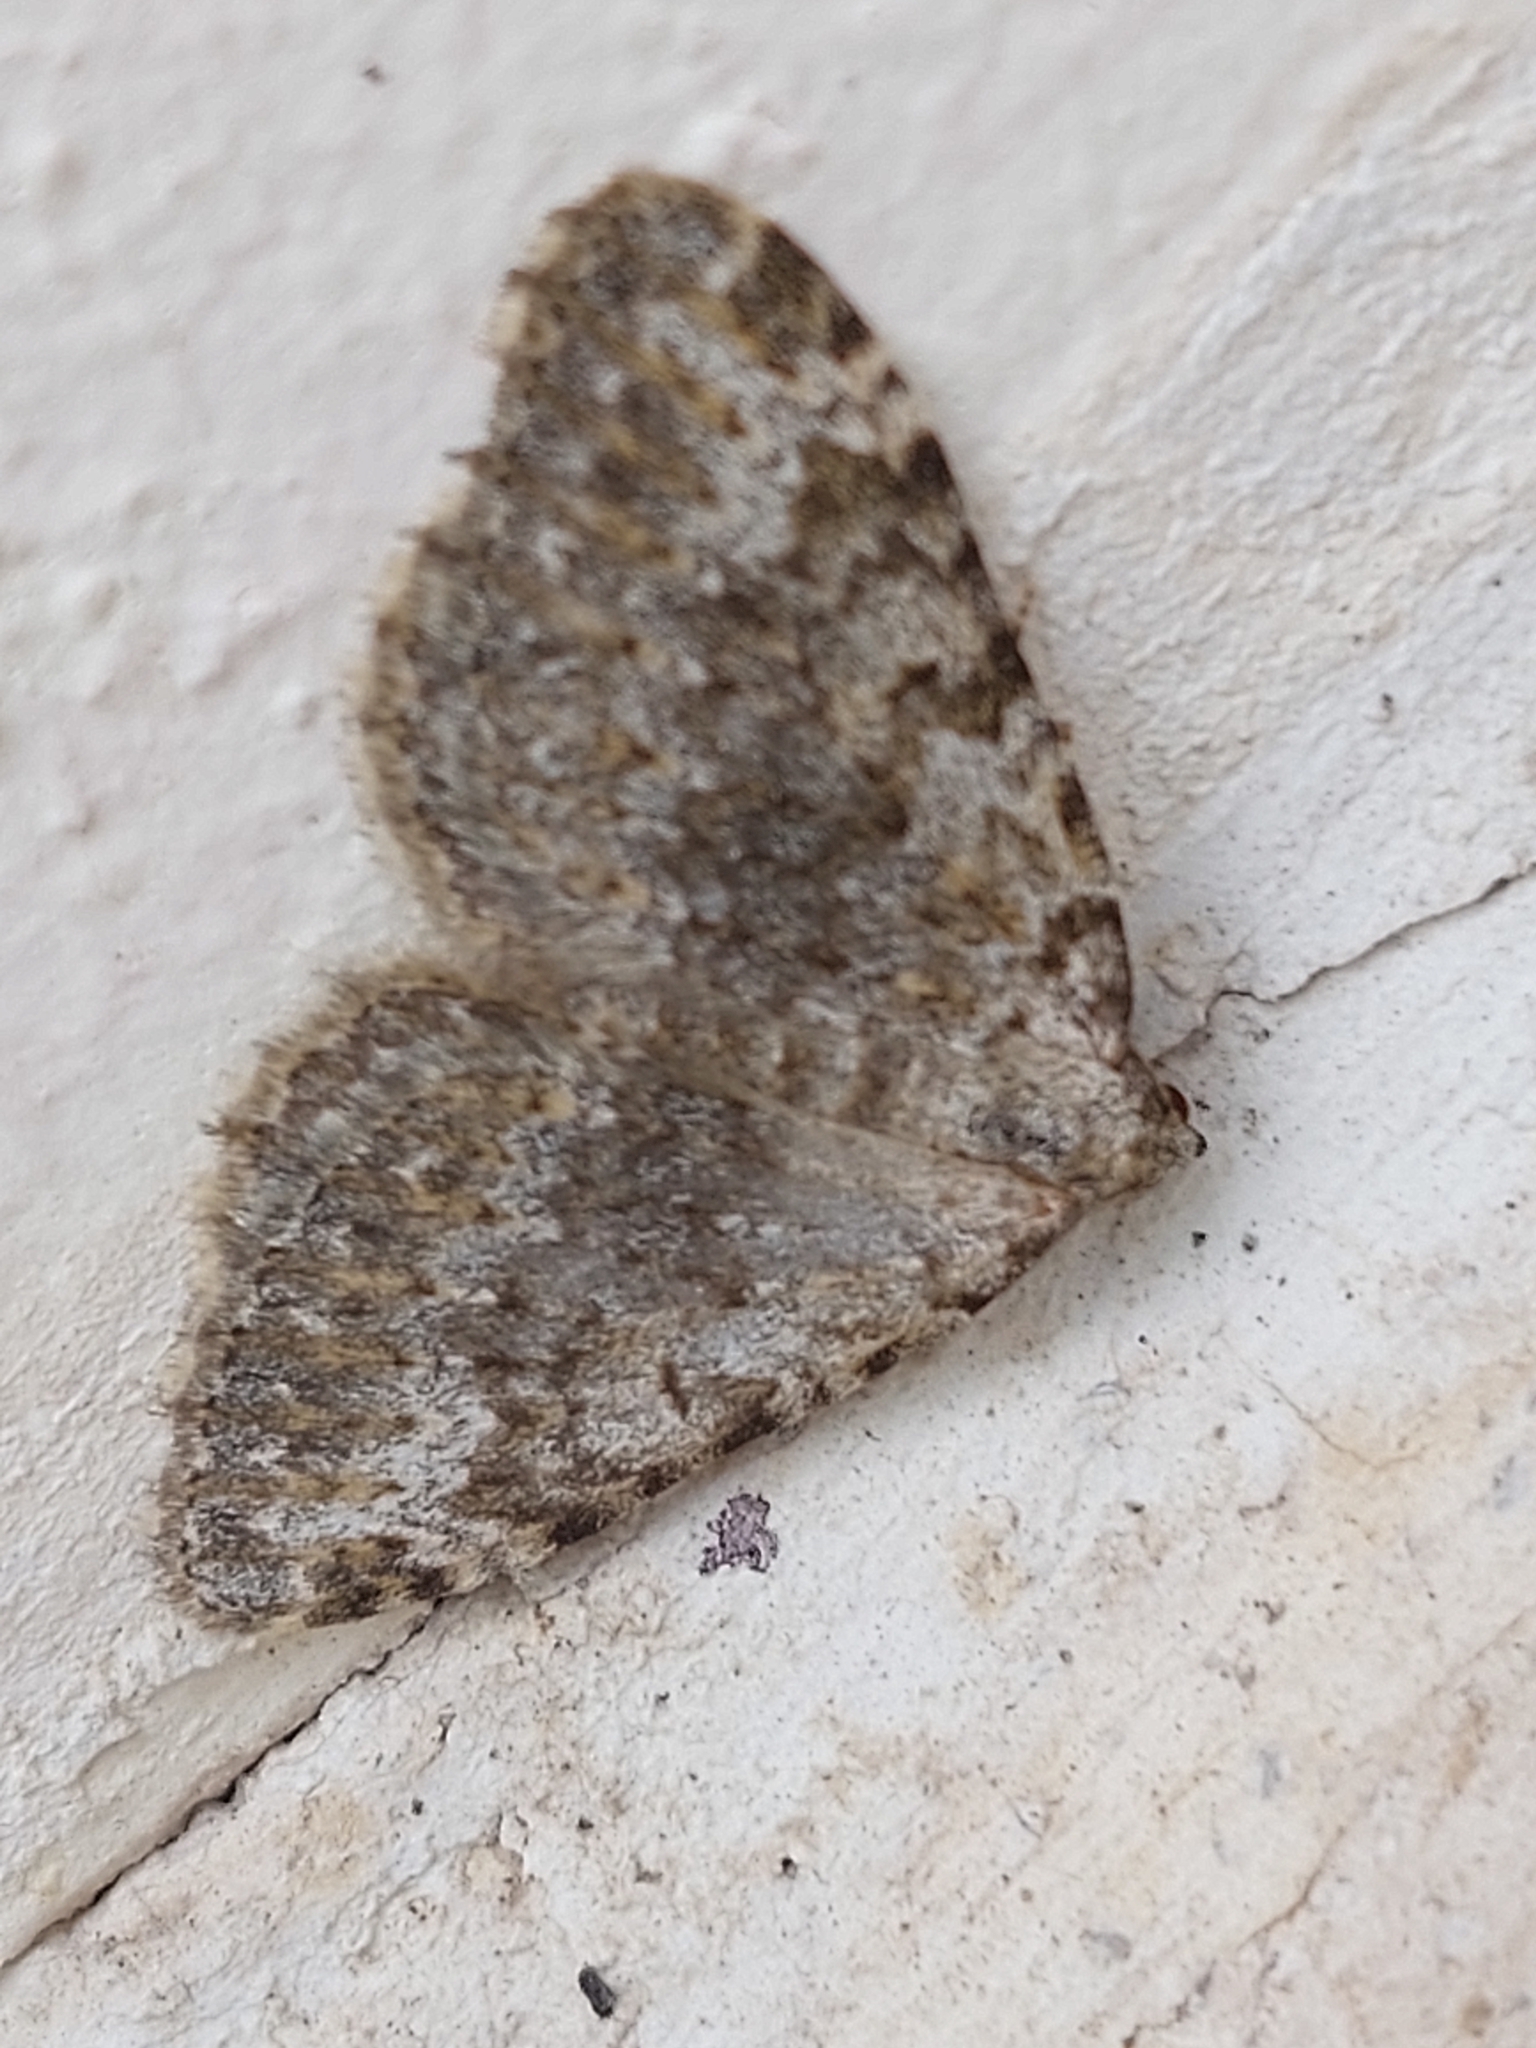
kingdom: Animalia
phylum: Arthropoda
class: Insecta
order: Lepidoptera
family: Geometridae
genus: Nebula
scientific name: Nebula salicata
